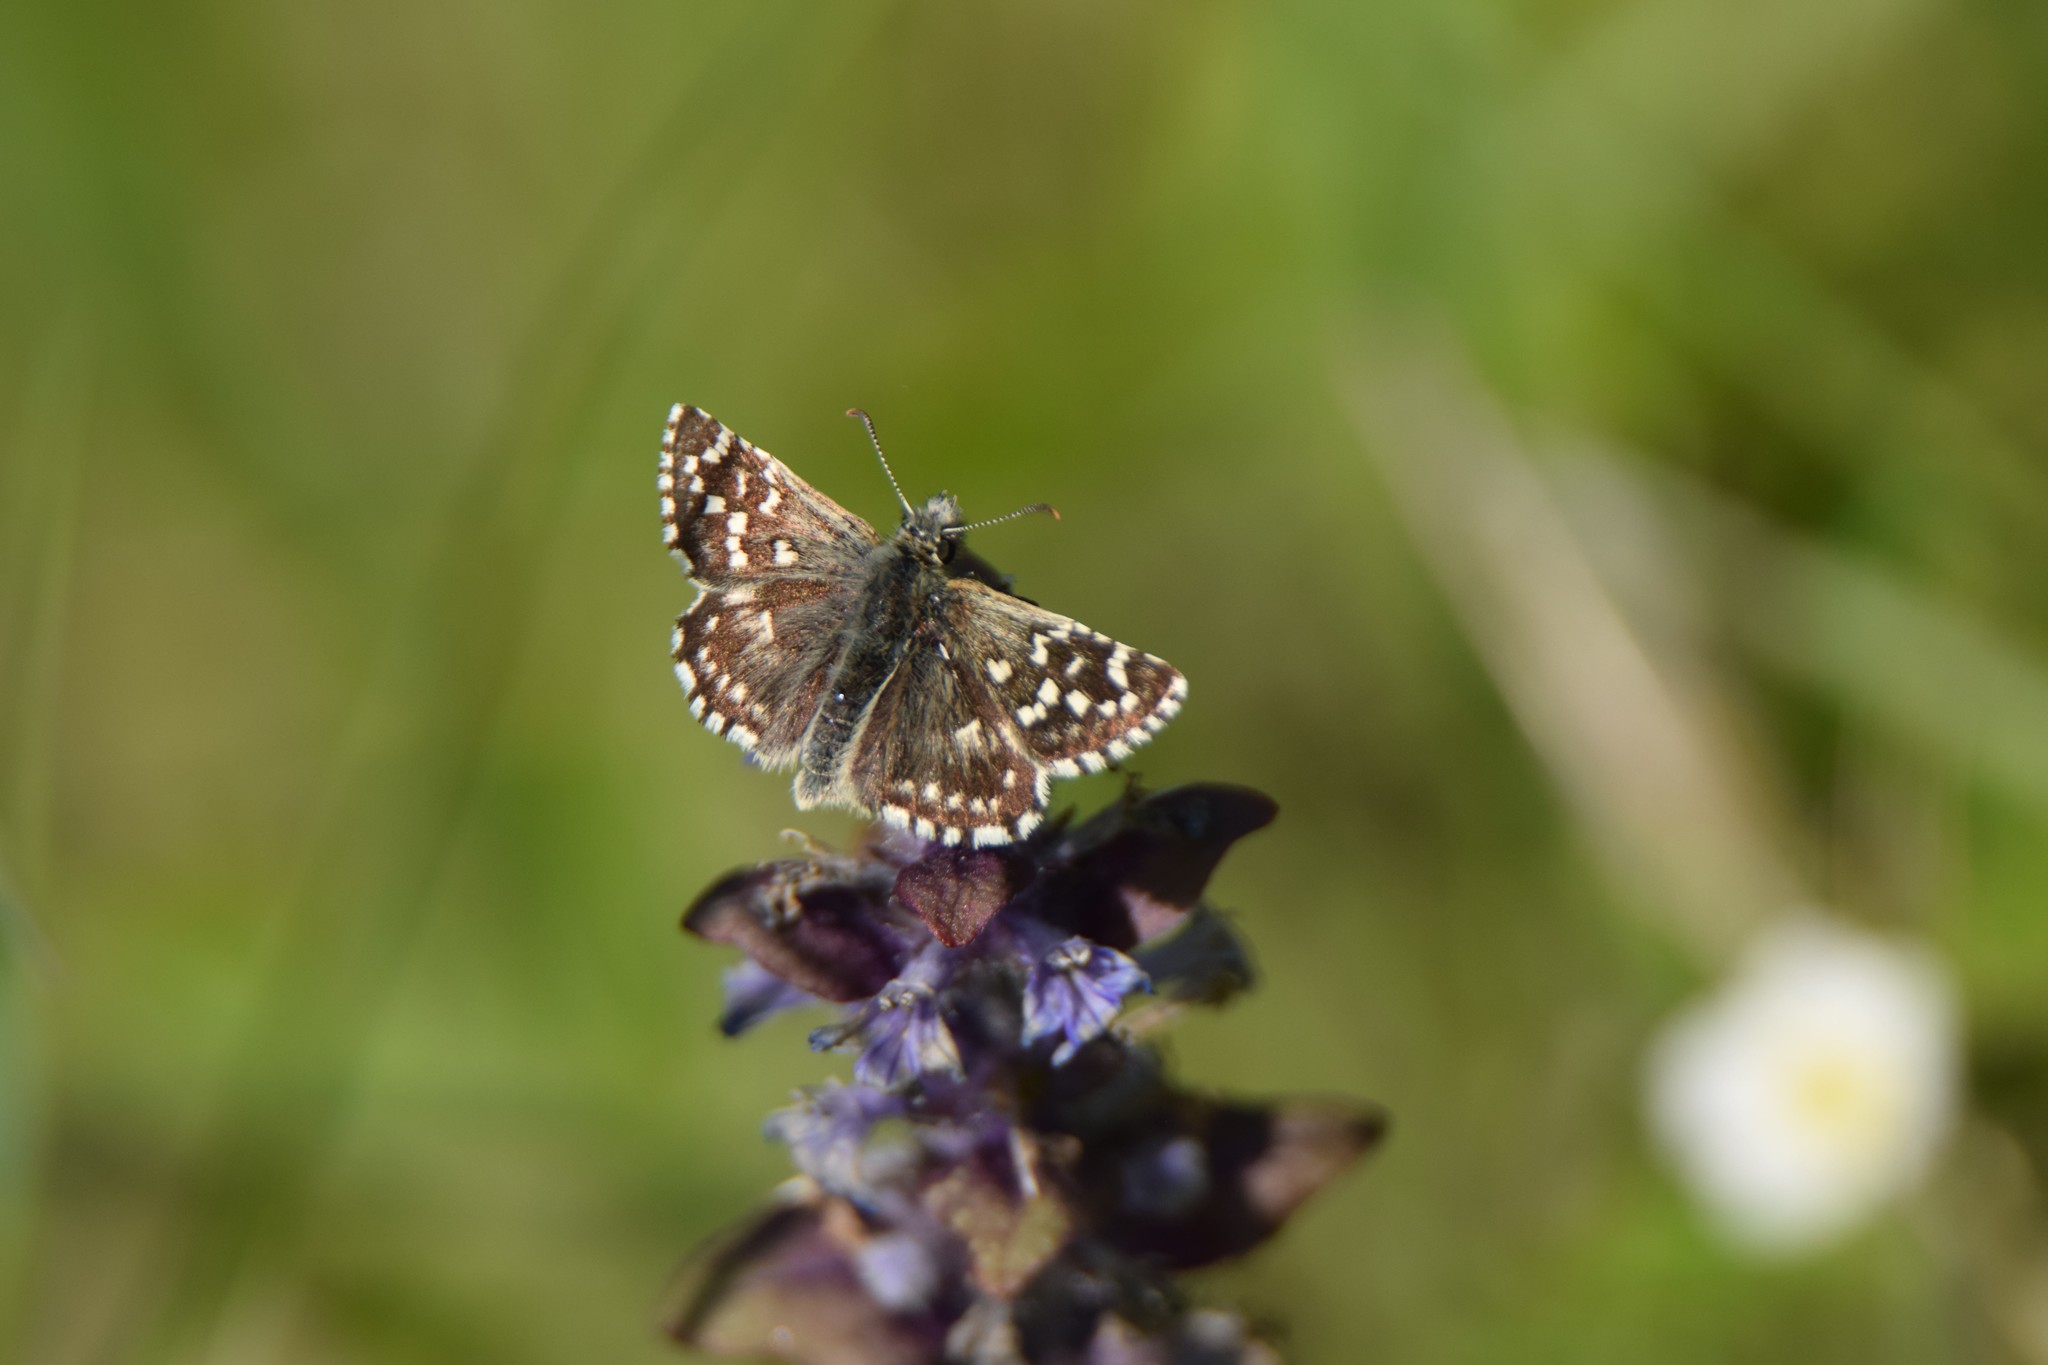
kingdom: Animalia
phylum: Arthropoda
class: Insecta
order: Lepidoptera
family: Hesperiidae
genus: Pyrgus
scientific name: Pyrgus malvae
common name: Grizzled skipper
